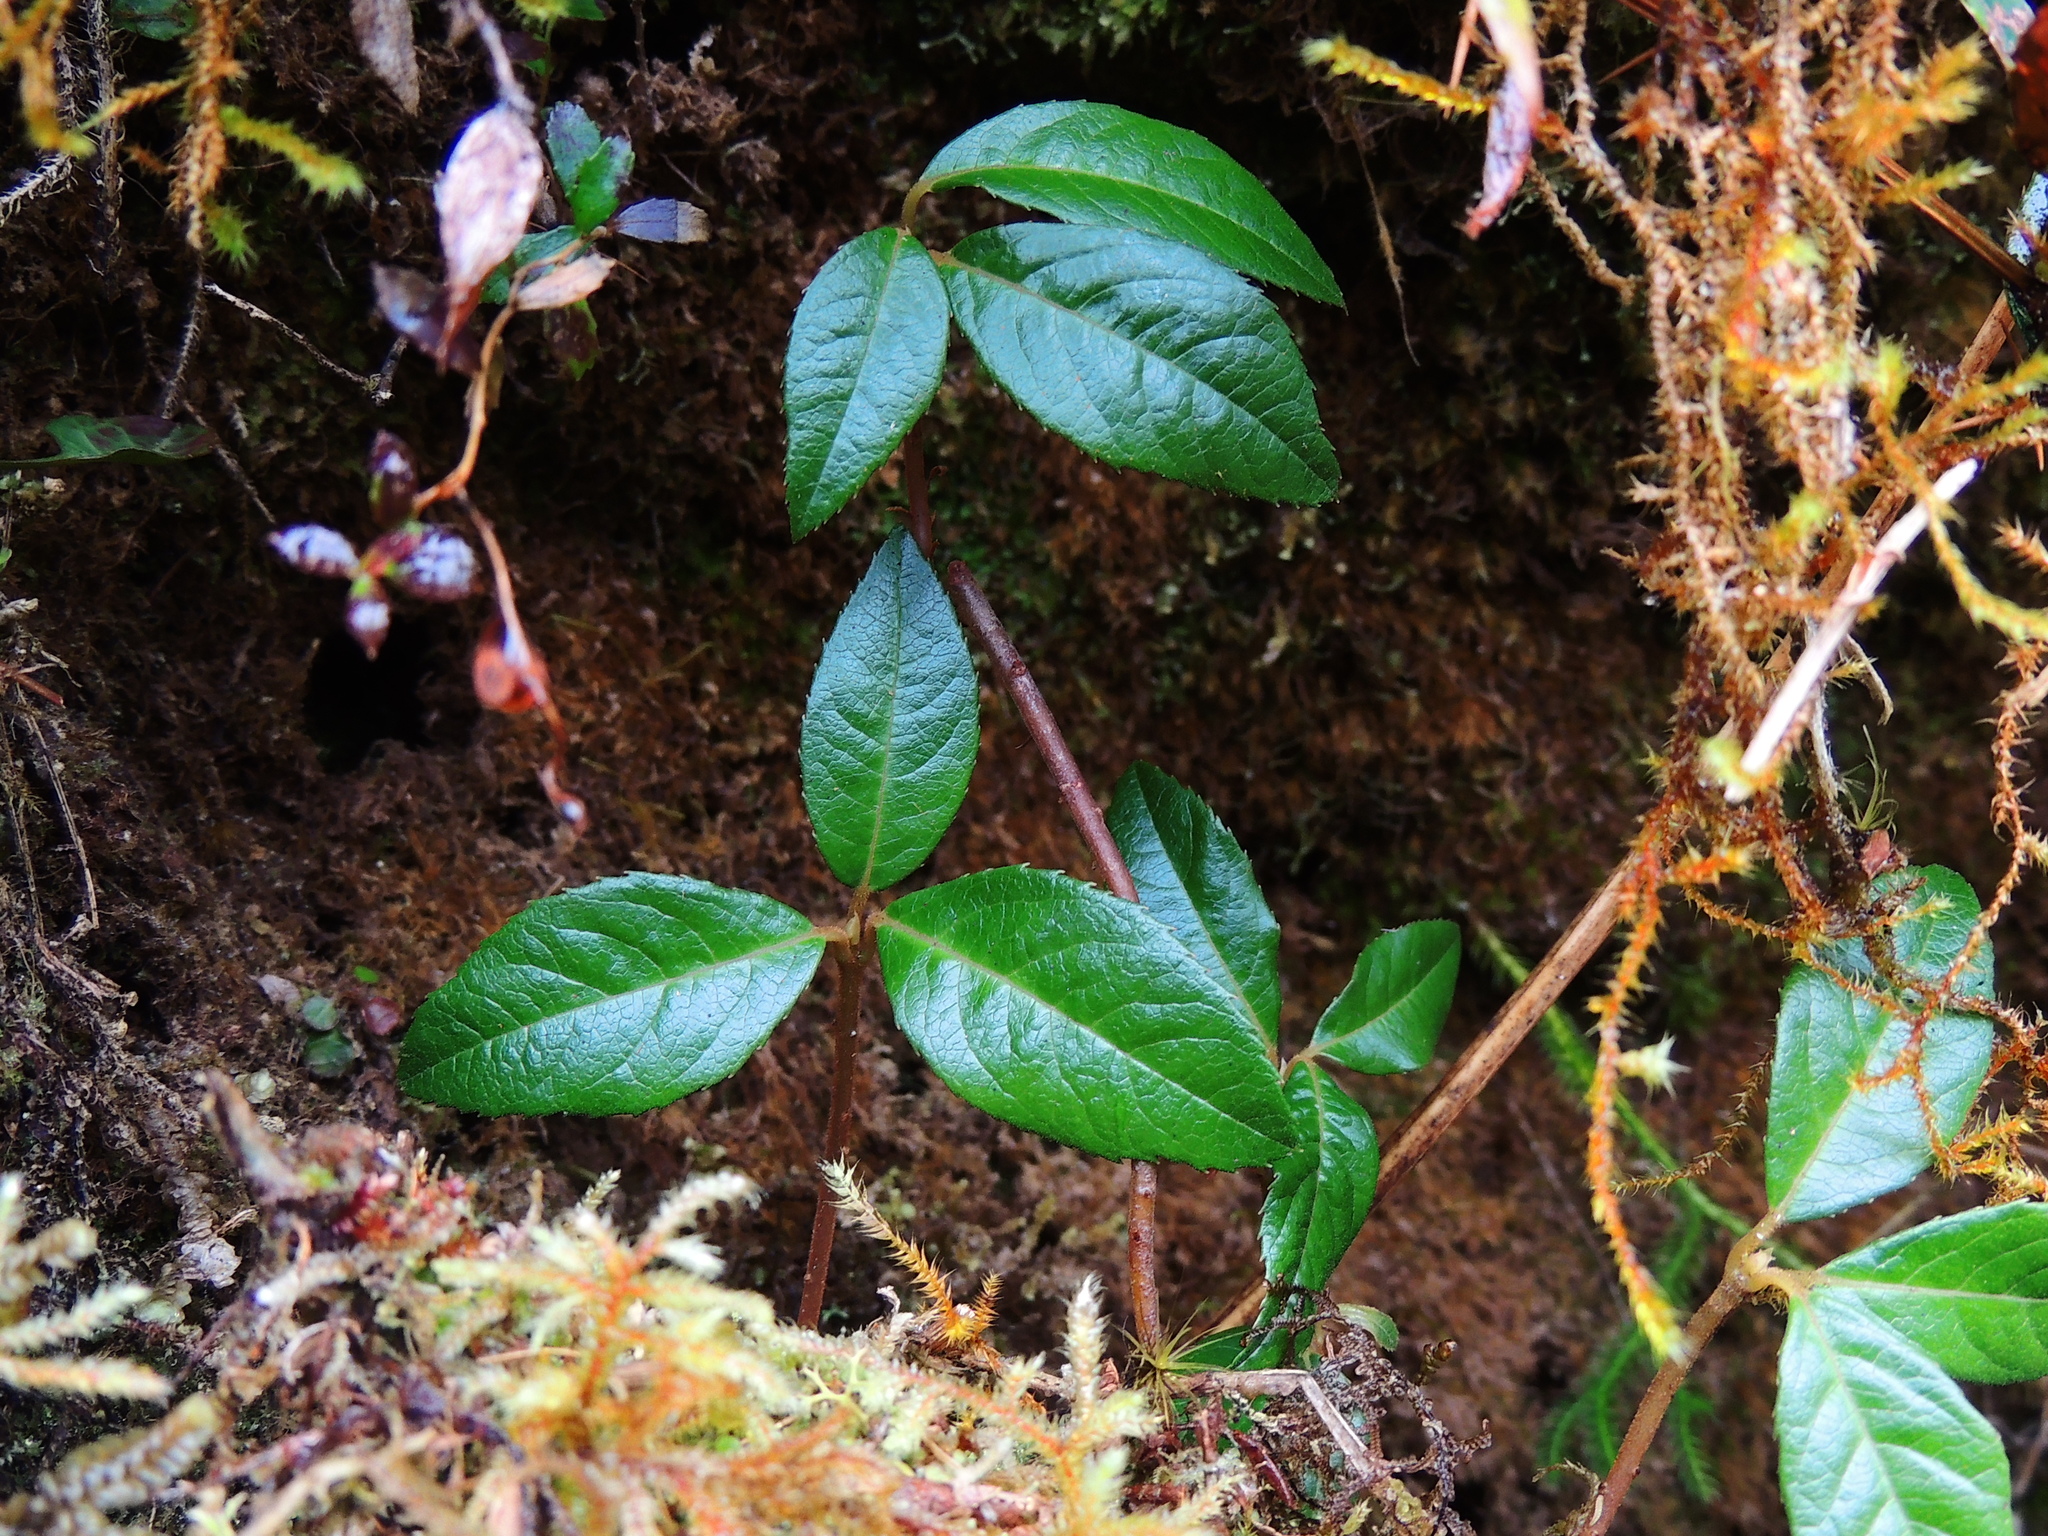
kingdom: Plantae
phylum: Tracheophyta
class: Magnoliopsida
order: Ericales
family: Primulaceae
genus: Ardisia
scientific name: Ardisia japonica
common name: Marlberry
